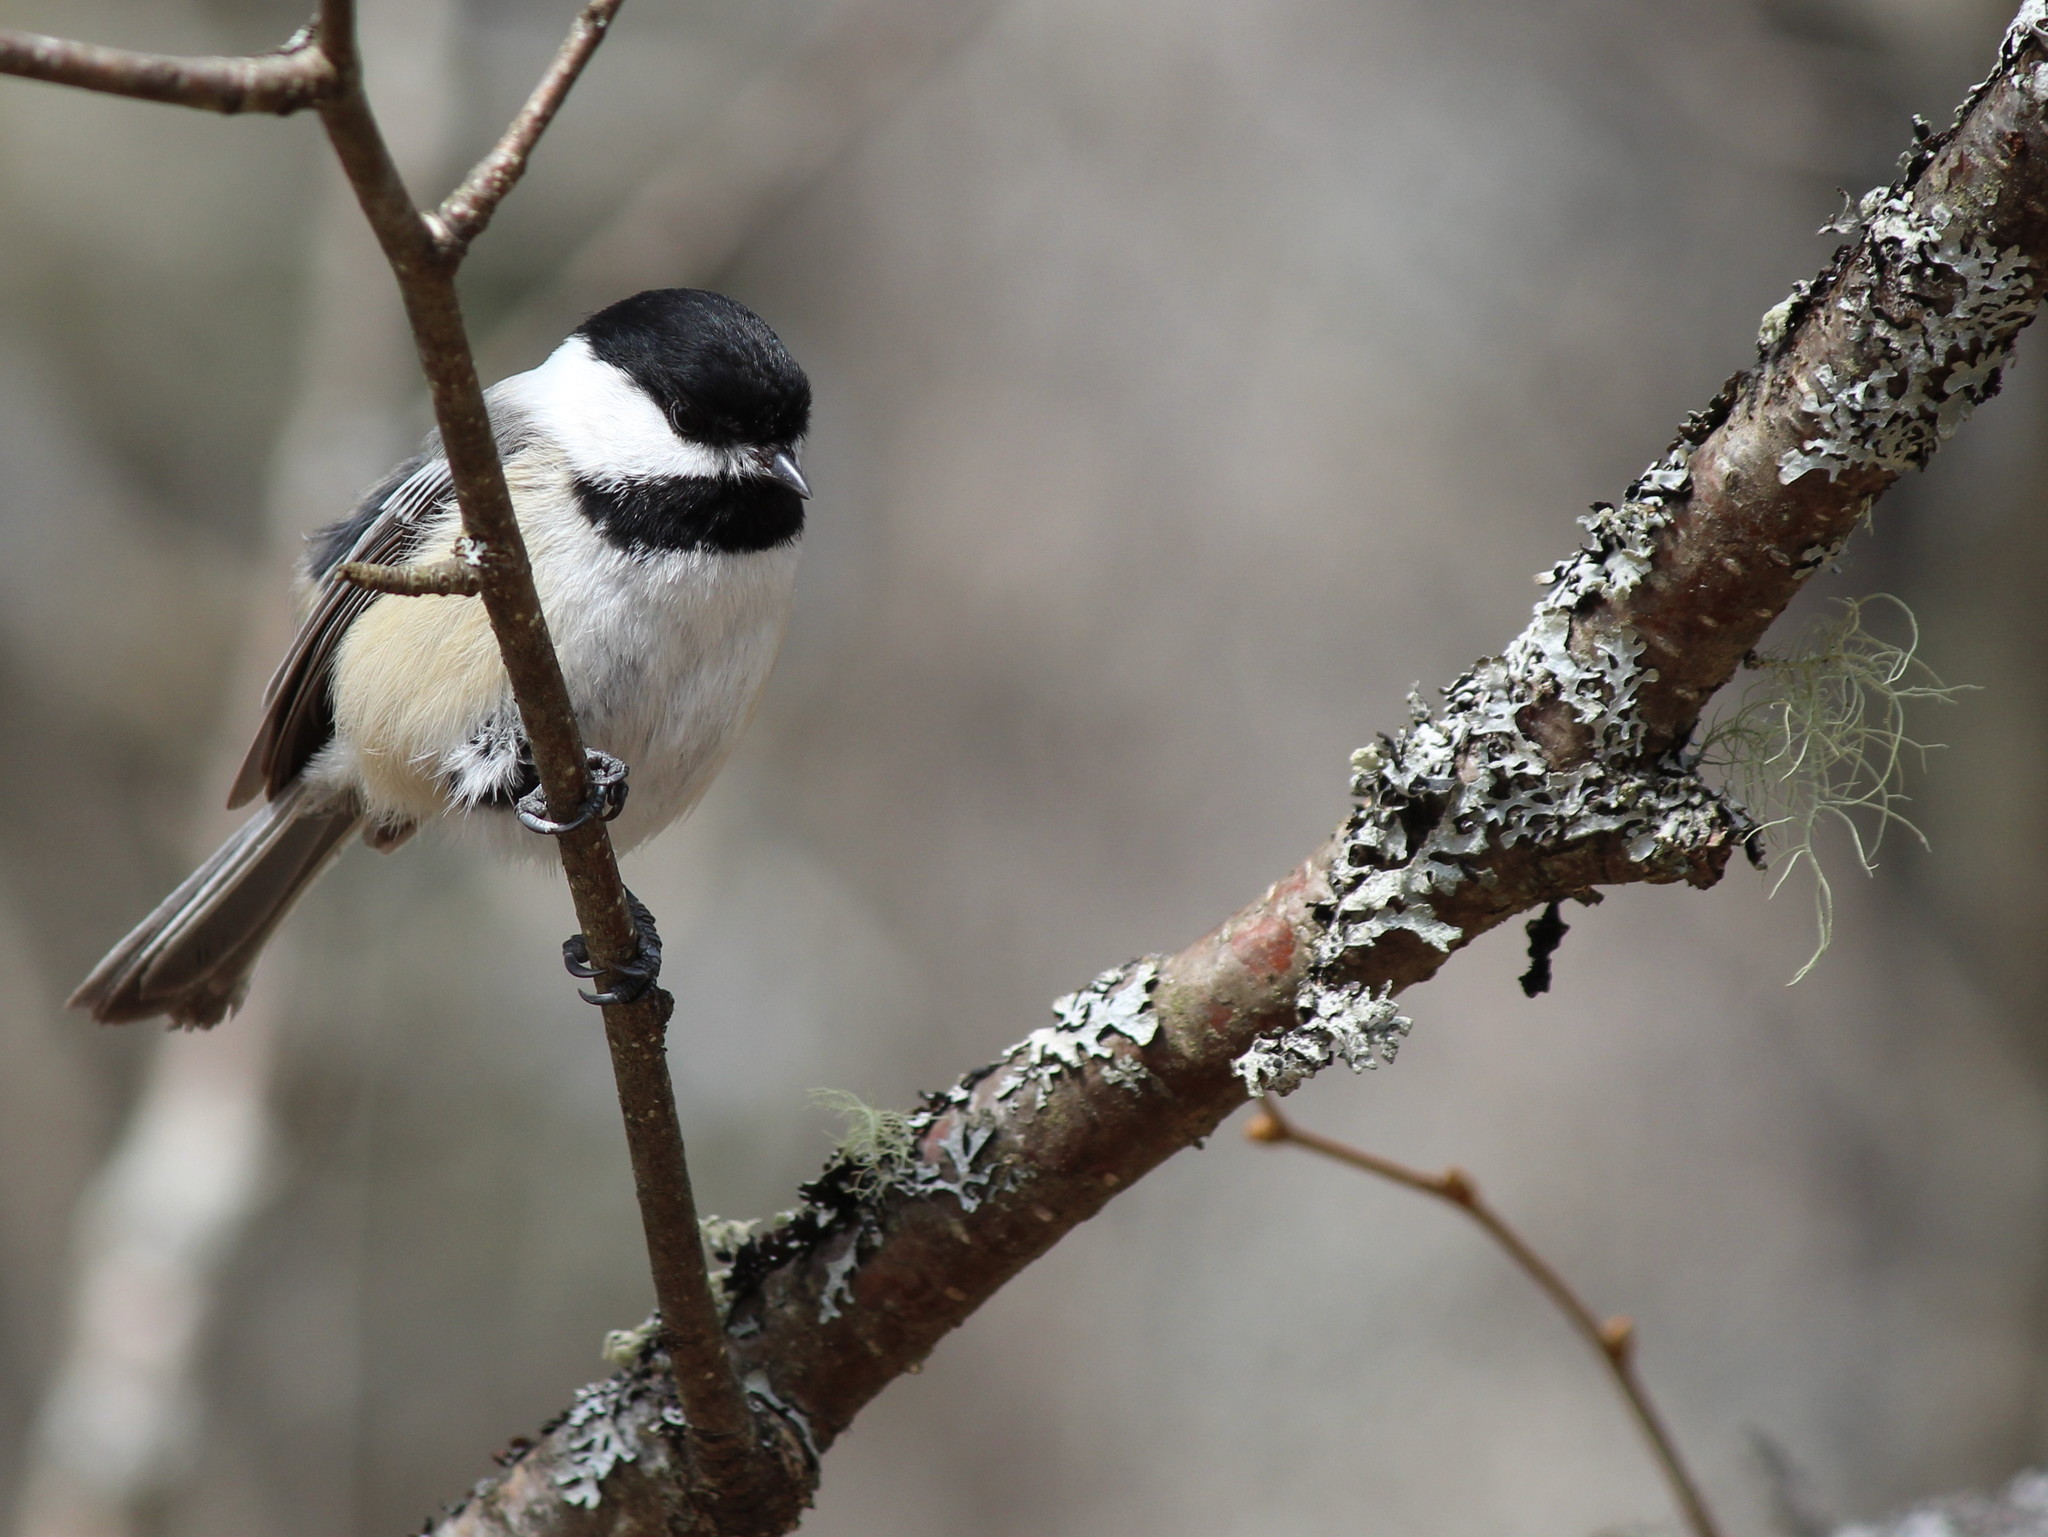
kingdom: Animalia
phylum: Chordata
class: Aves
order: Passeriformes
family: Paridae
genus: Poecile
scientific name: Poecile atricapillus
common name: Black-capped chickadee
